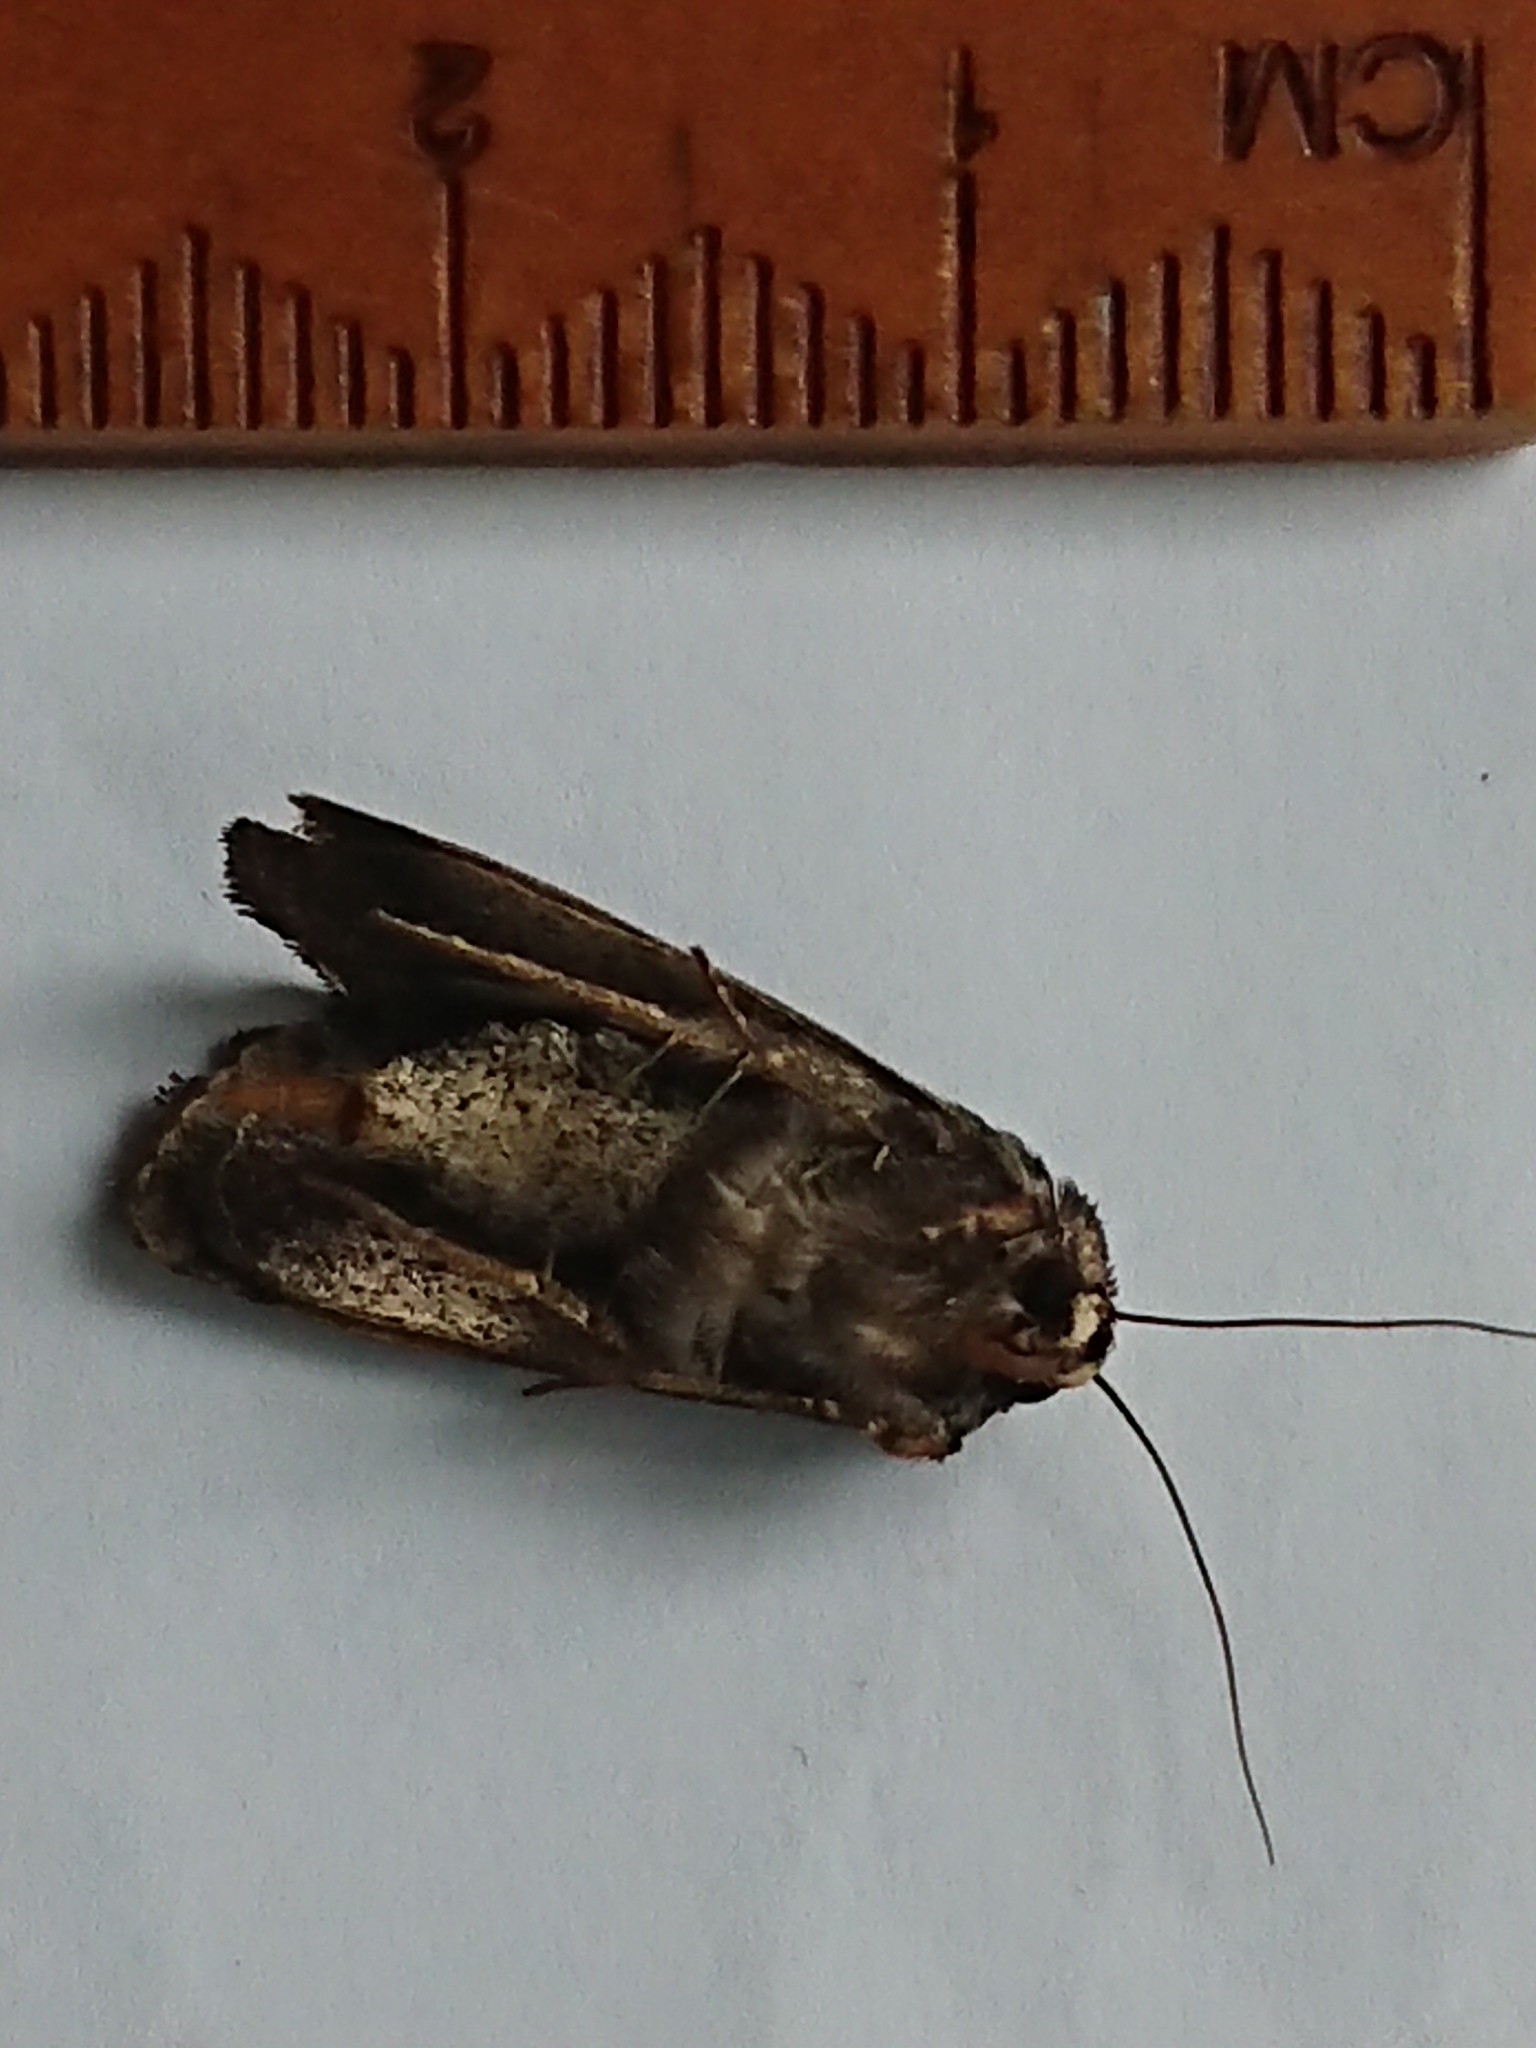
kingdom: Animalia
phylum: Arthropoda
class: Insecta
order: Lepidoptera
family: Noctuidae
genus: Proteuxoa
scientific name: Proteuxoa comma
